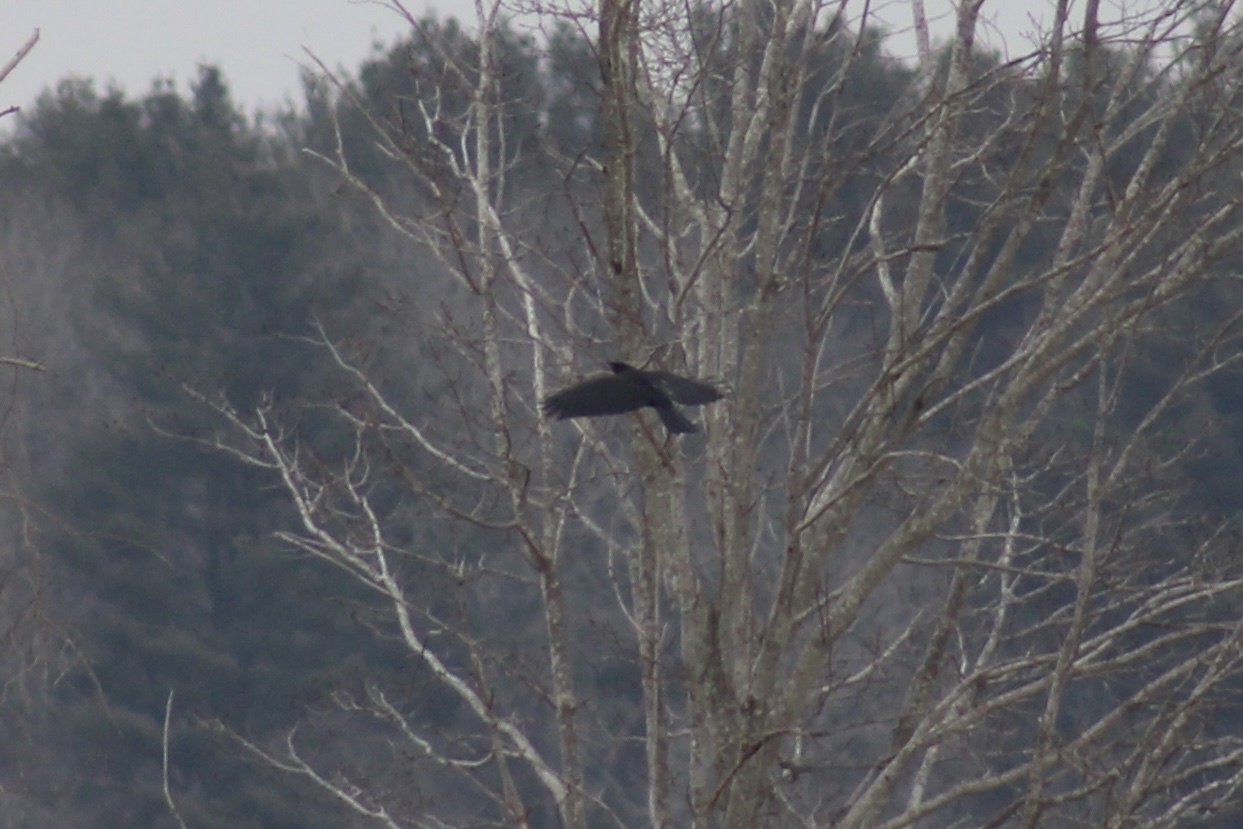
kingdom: Animalia
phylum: Chordata
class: Aves
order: Passeriformes
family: Corvidae
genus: Corvus
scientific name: Corvus brachyrhynchos
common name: American crow
